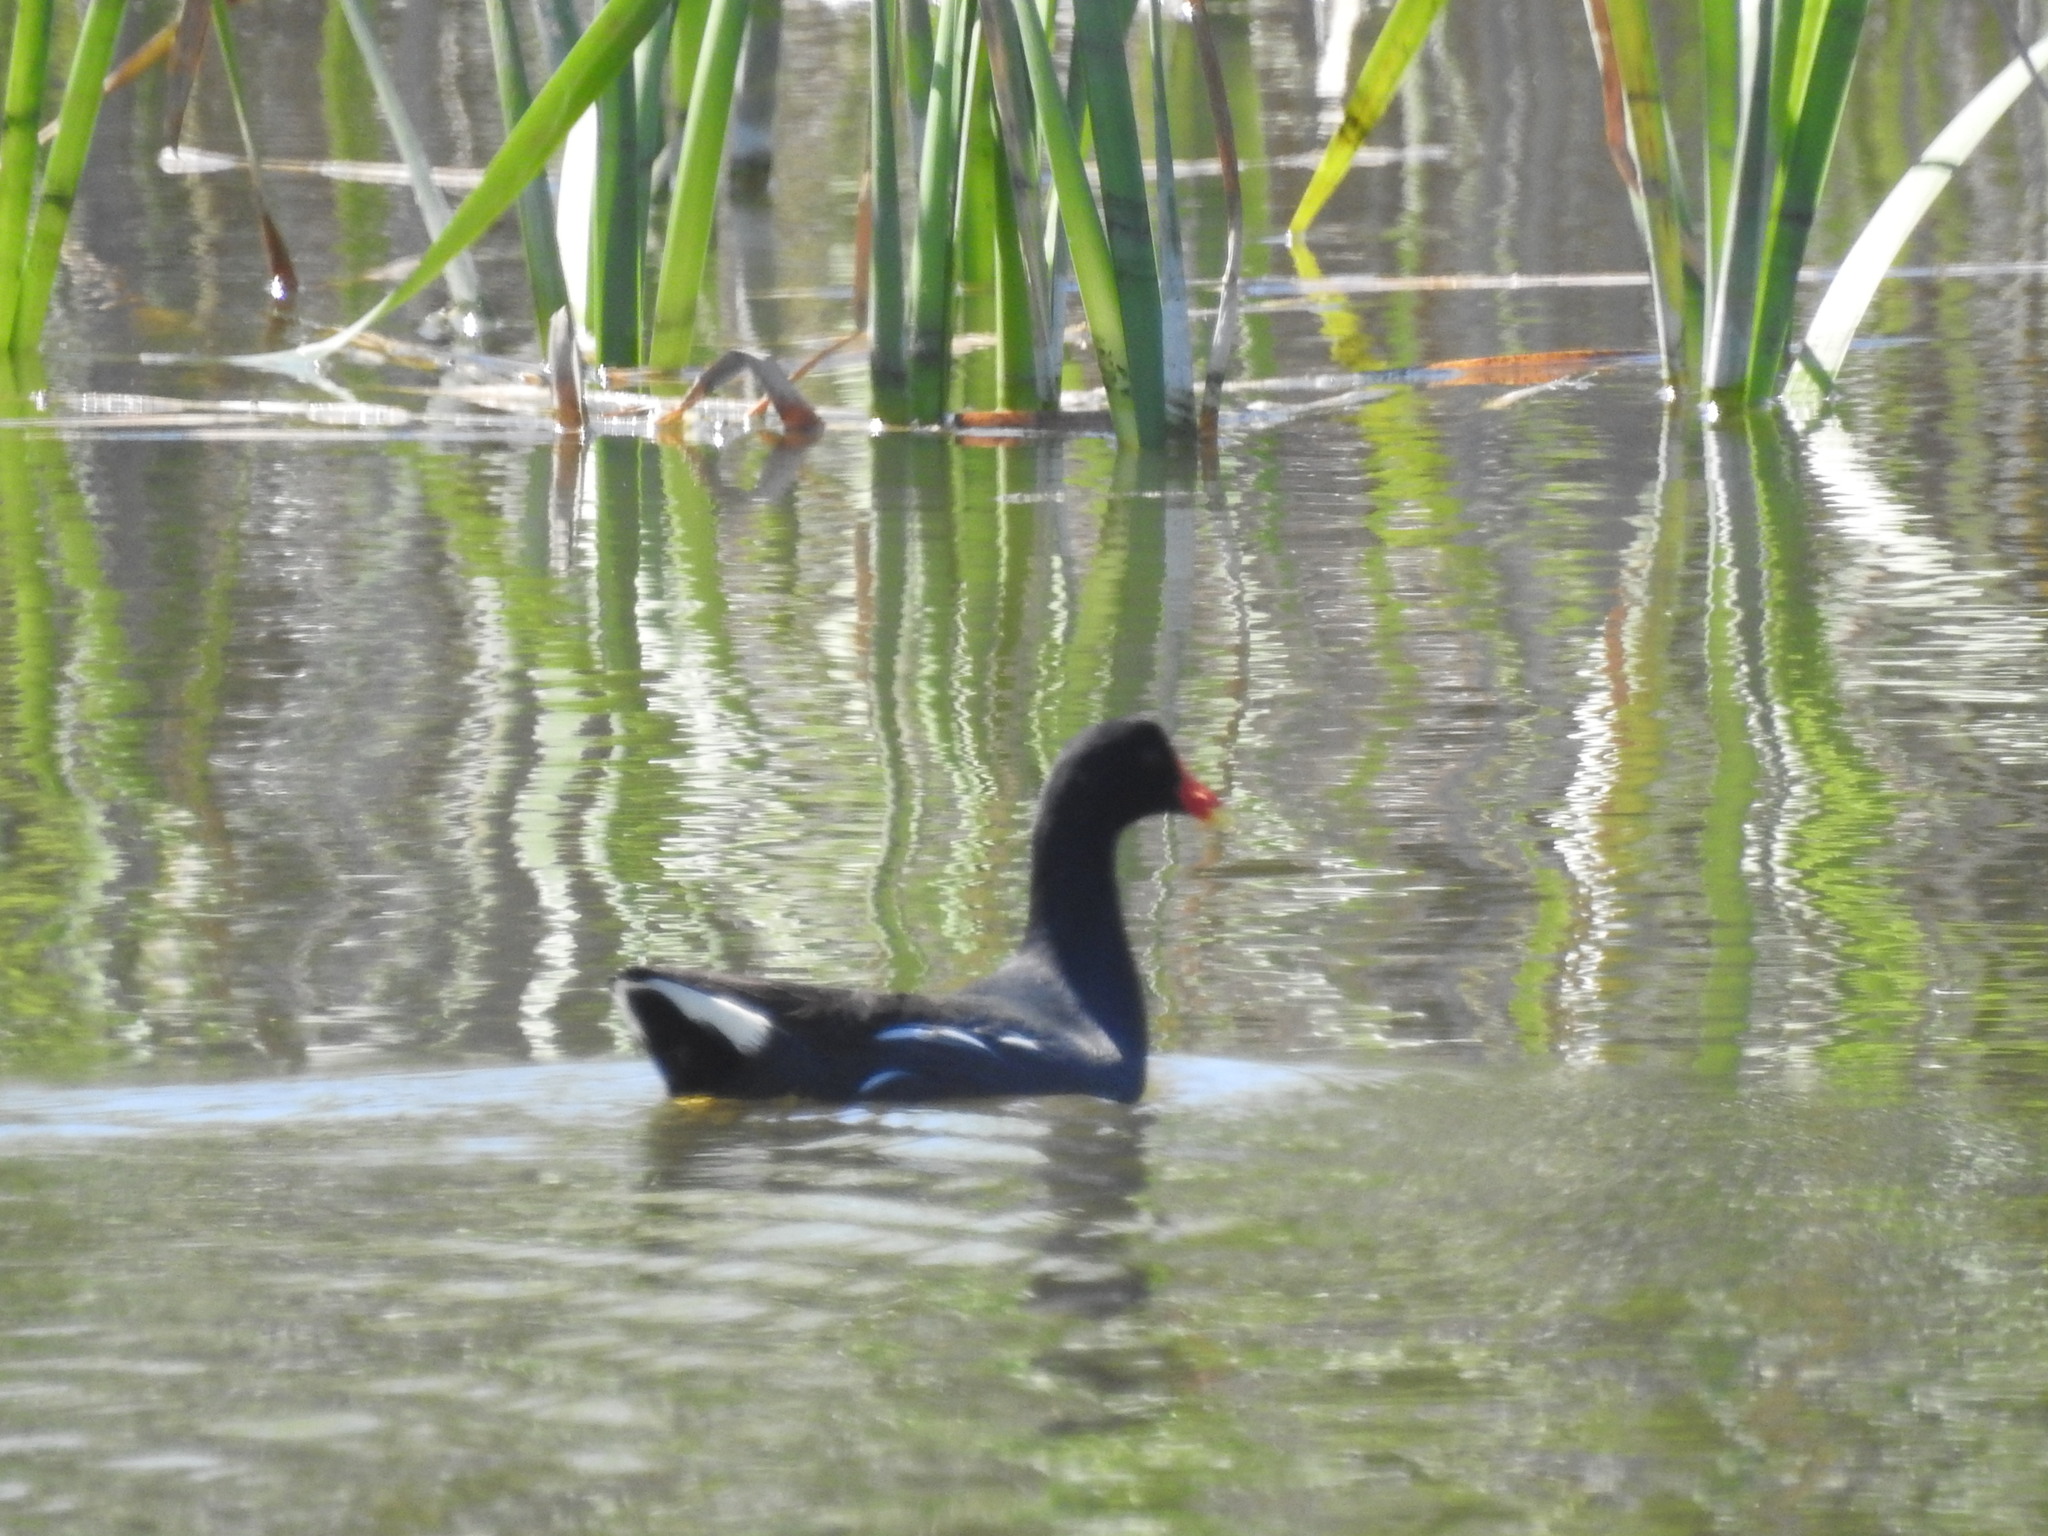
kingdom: Animalia
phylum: Chordata
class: Aves
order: Gruiformes
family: Rallidae
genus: Gallinula
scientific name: Gallinula chloropus
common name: Common moorhen
